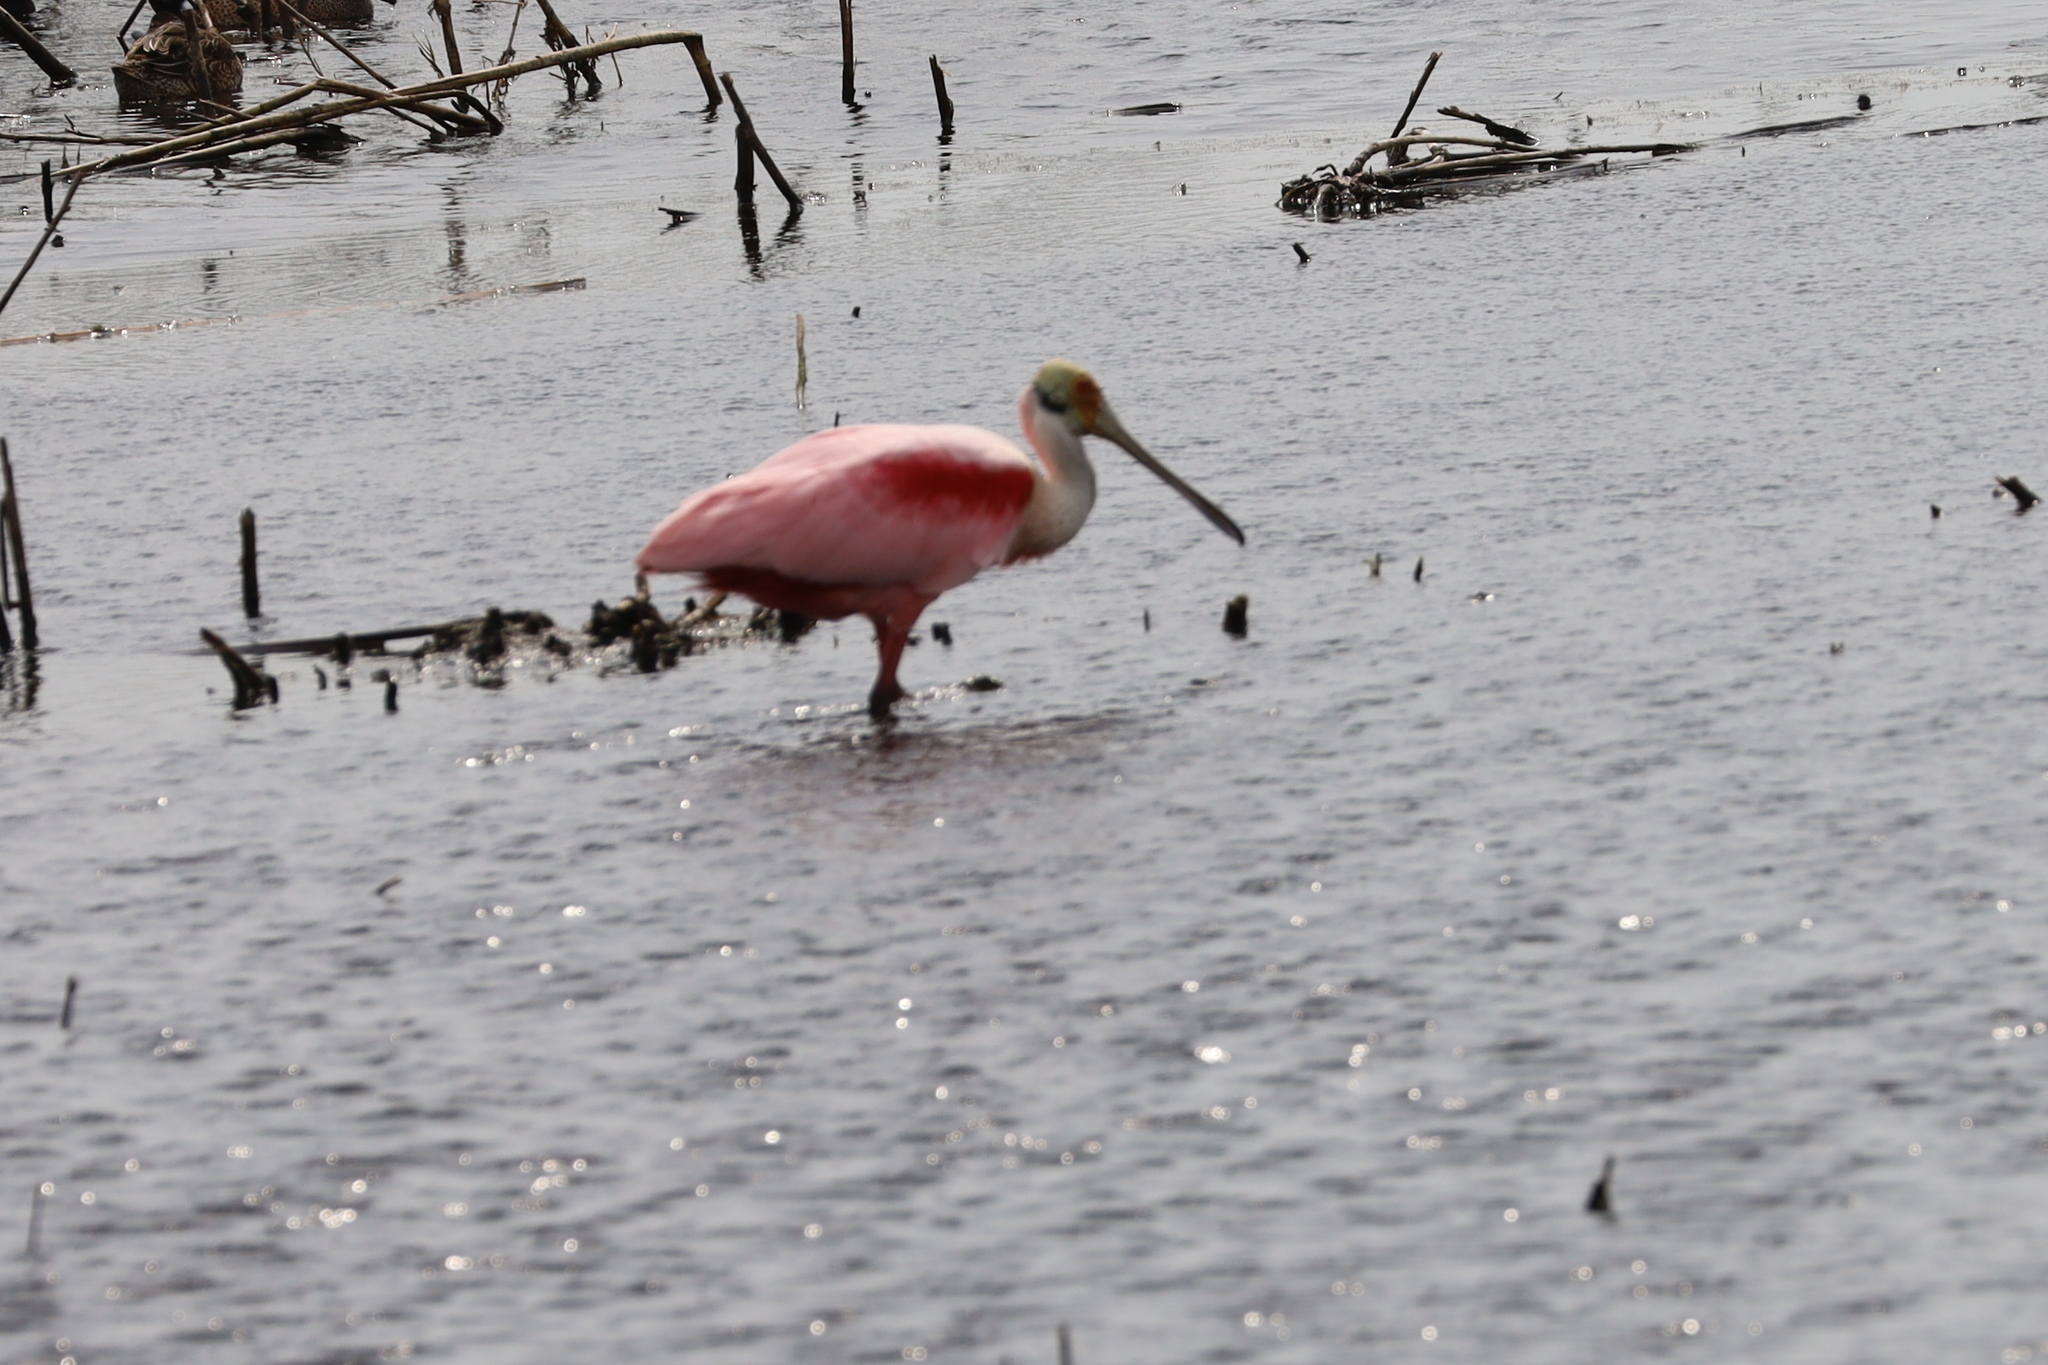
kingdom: Animalia
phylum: Chordata
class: Aves
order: Pelecaniformes
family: Threskiornithidae
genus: Platalea
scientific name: Platalea ajaja
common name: Roseate spoonbill
